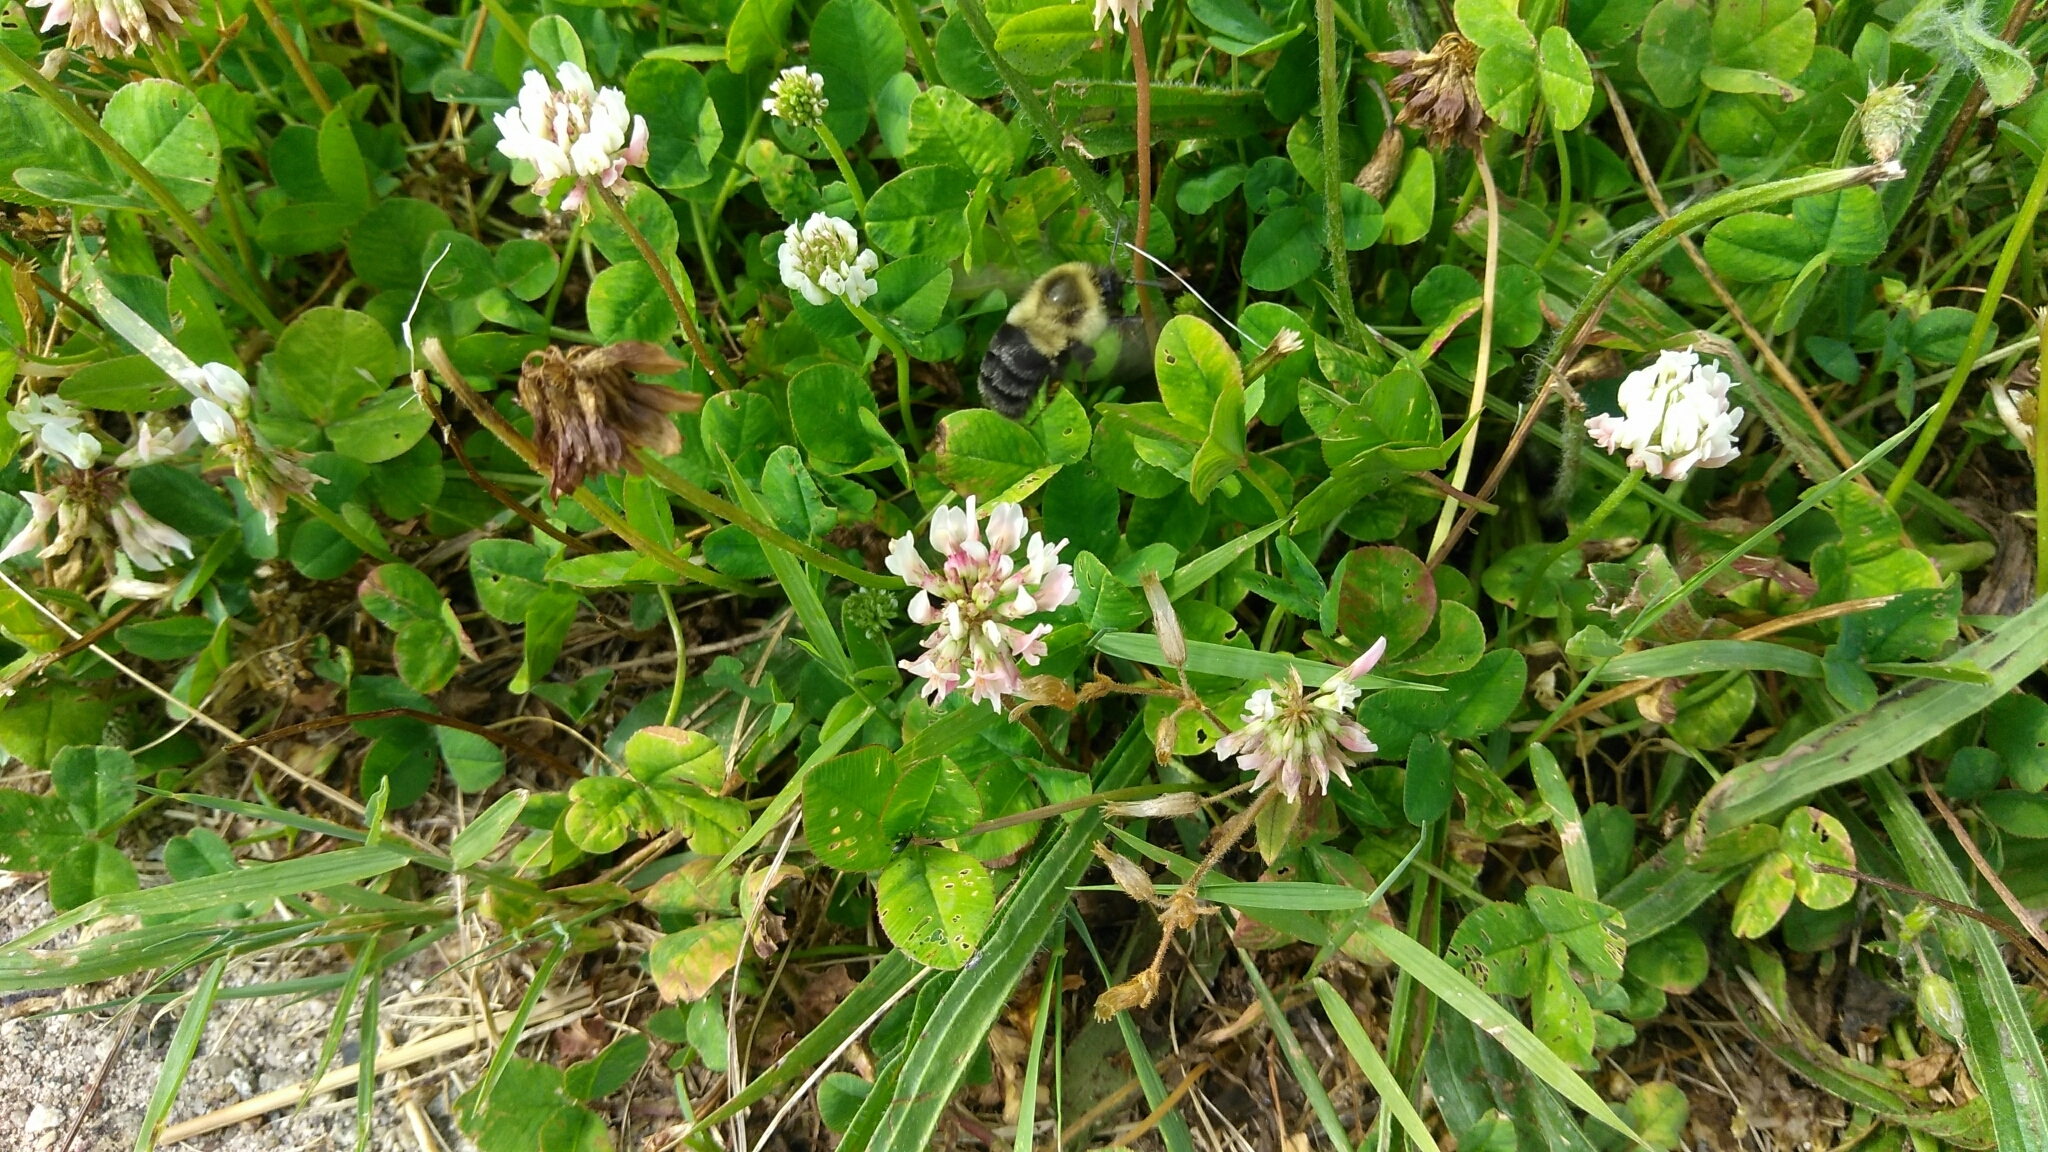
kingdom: Animalia
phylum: Arthropoda
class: Insecta
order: Hymenoptera
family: Apidae
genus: Bombus
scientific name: Bombus impatiens
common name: Common eastern bumble bee
